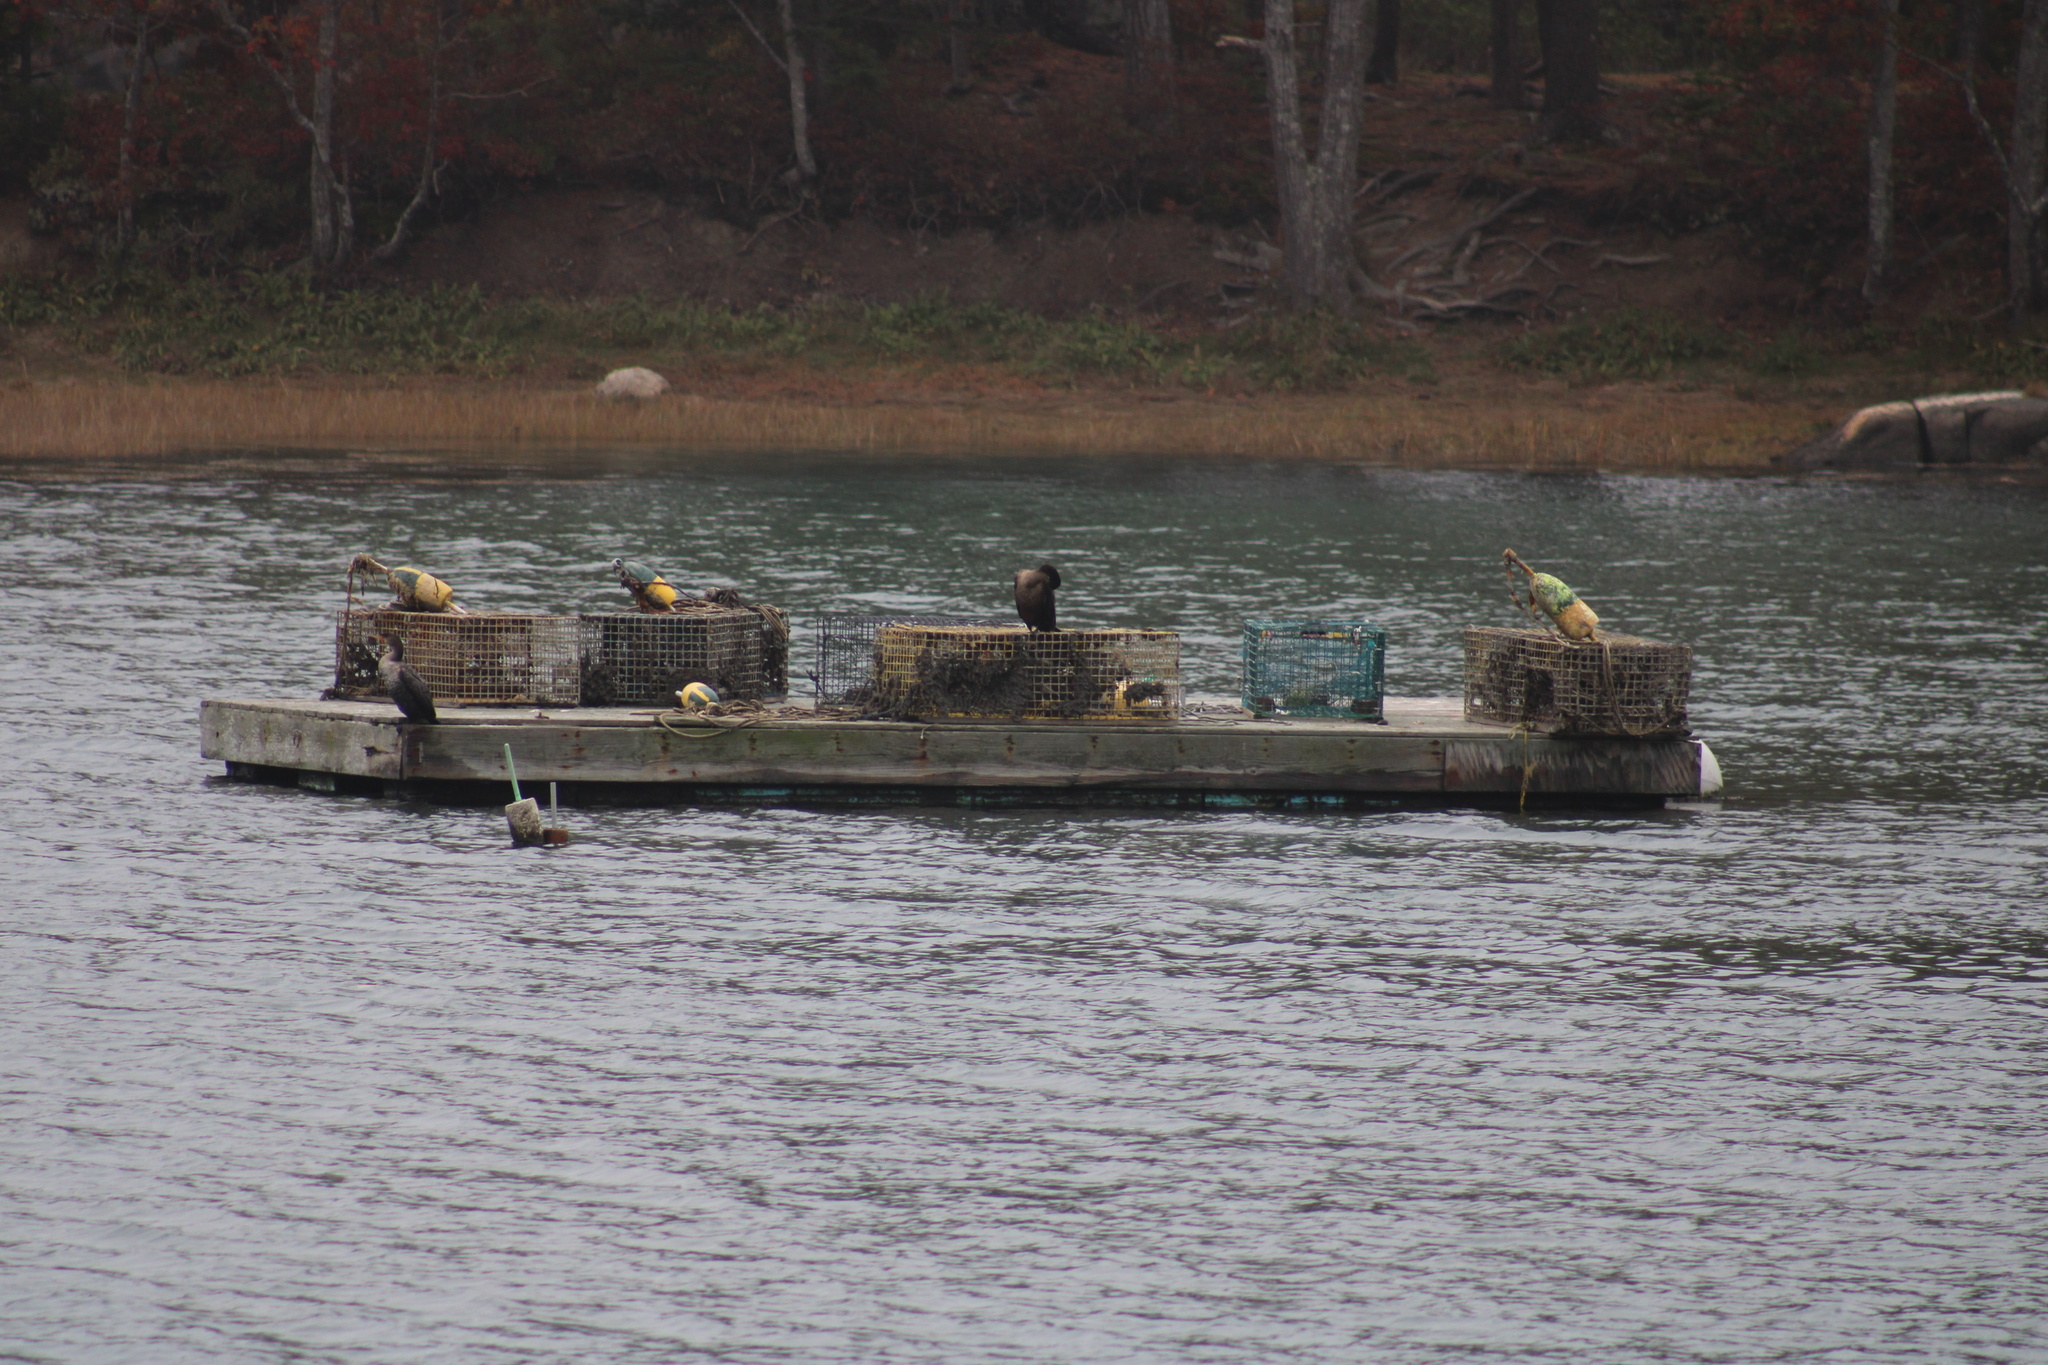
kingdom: Animalia
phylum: Chordata
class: Aves
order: Suliformes
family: Phalacrocoracidae
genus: Phalacrocorax
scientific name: Phalacrocorax auritus
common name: Double-crested cormorant
